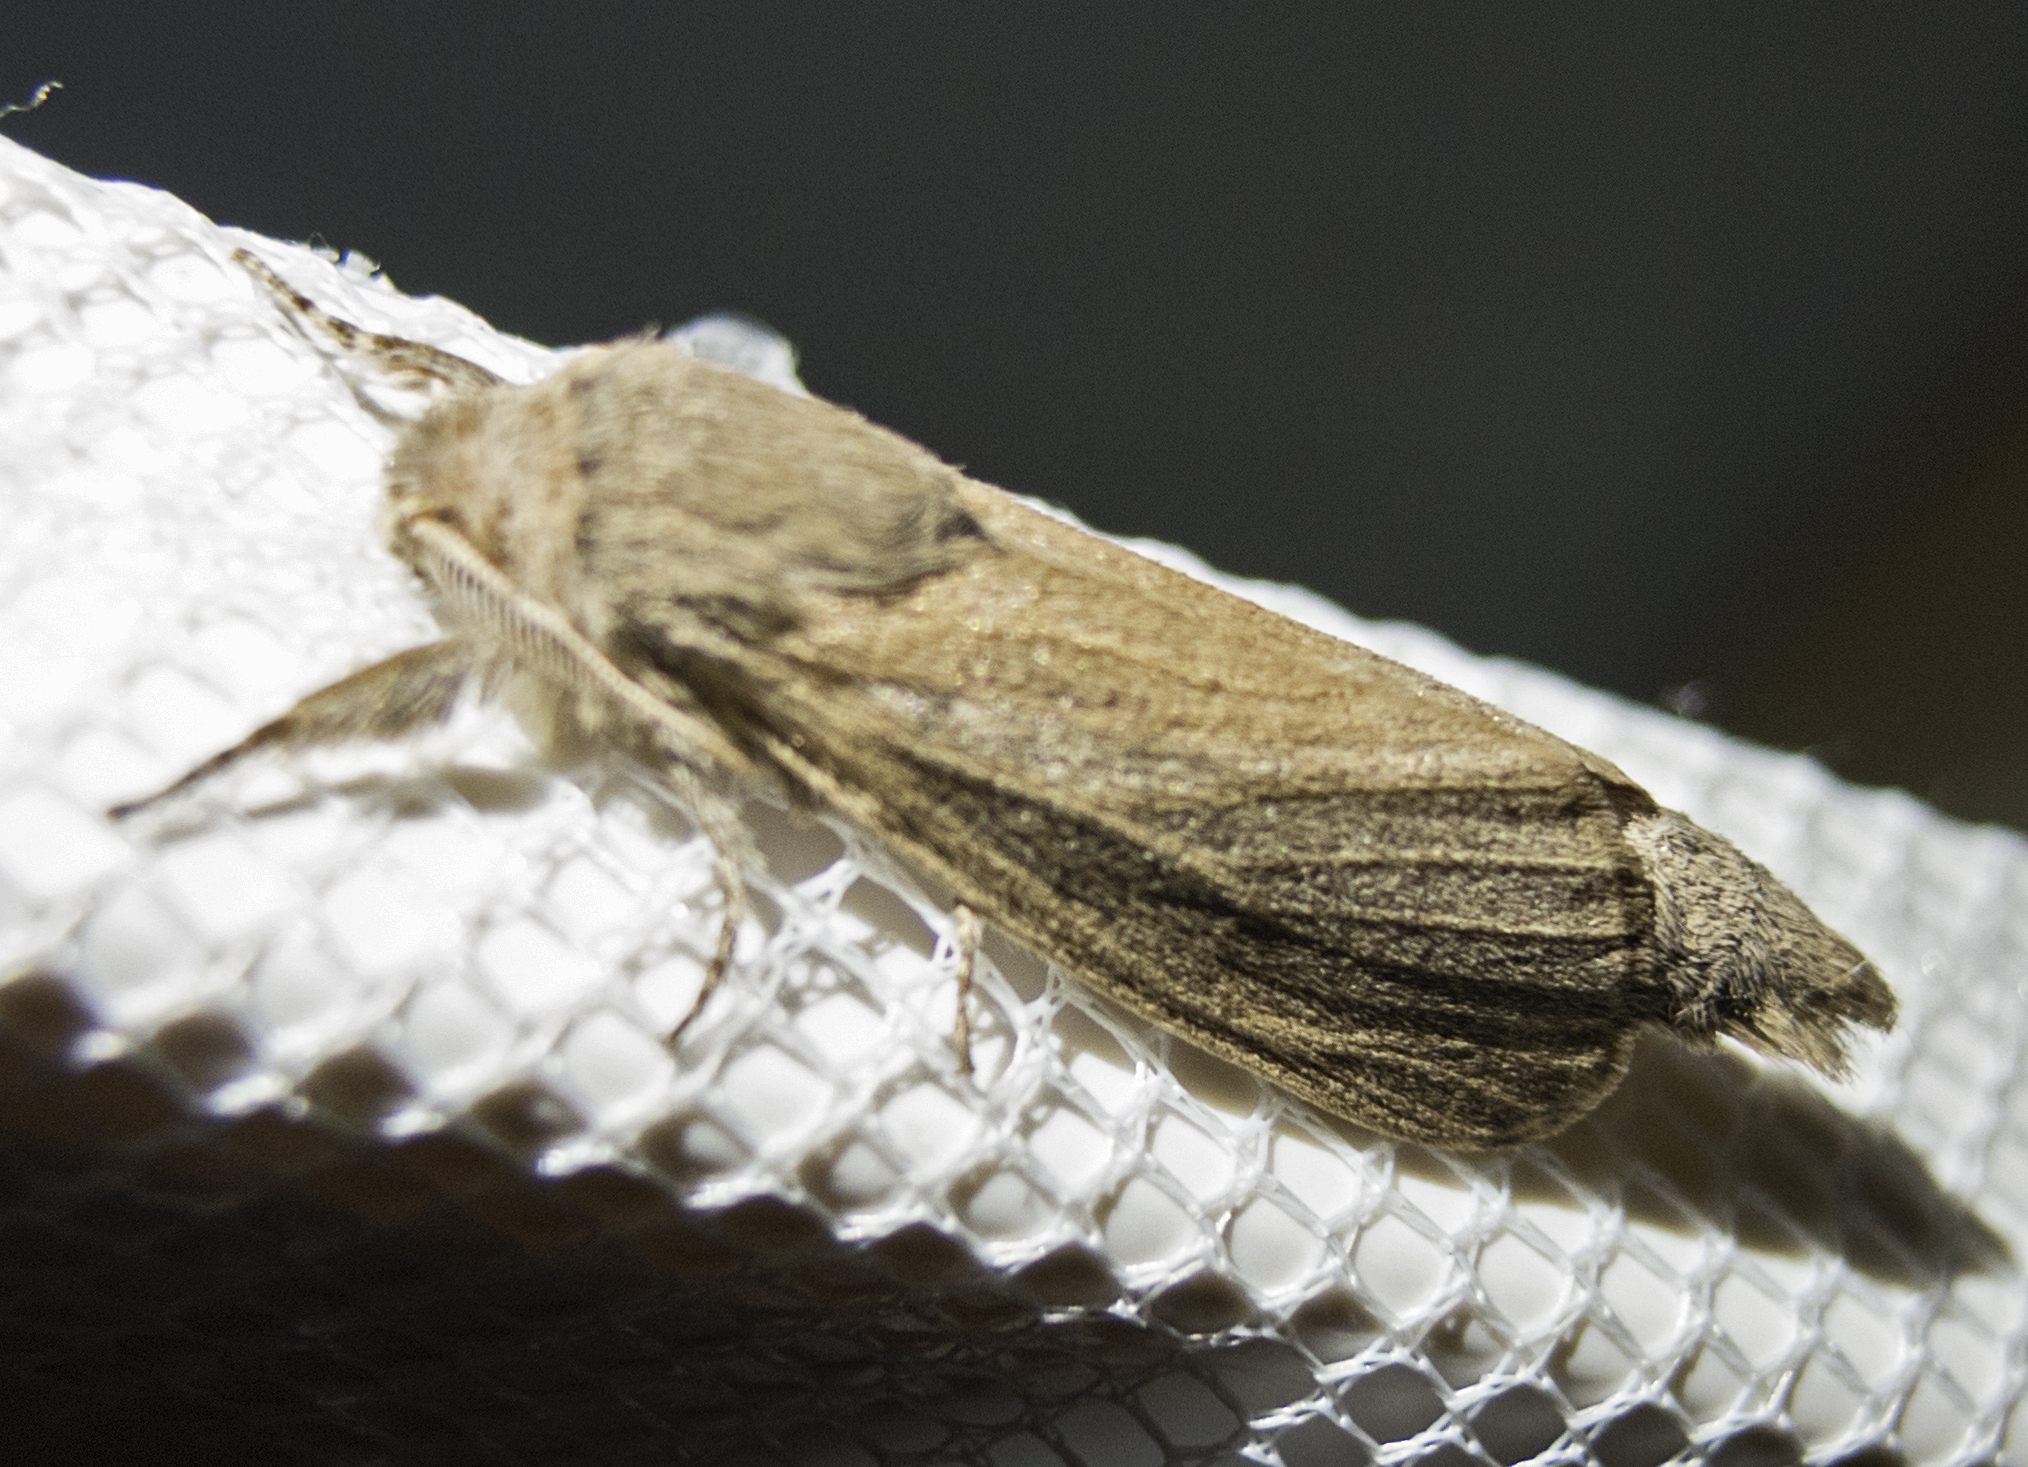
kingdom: Animalia
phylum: Arthropoda
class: Insecta
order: Lepidoptera
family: Cossidae
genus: Phragmataecia
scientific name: Phragmataecia castaneae
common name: Reed leopard
